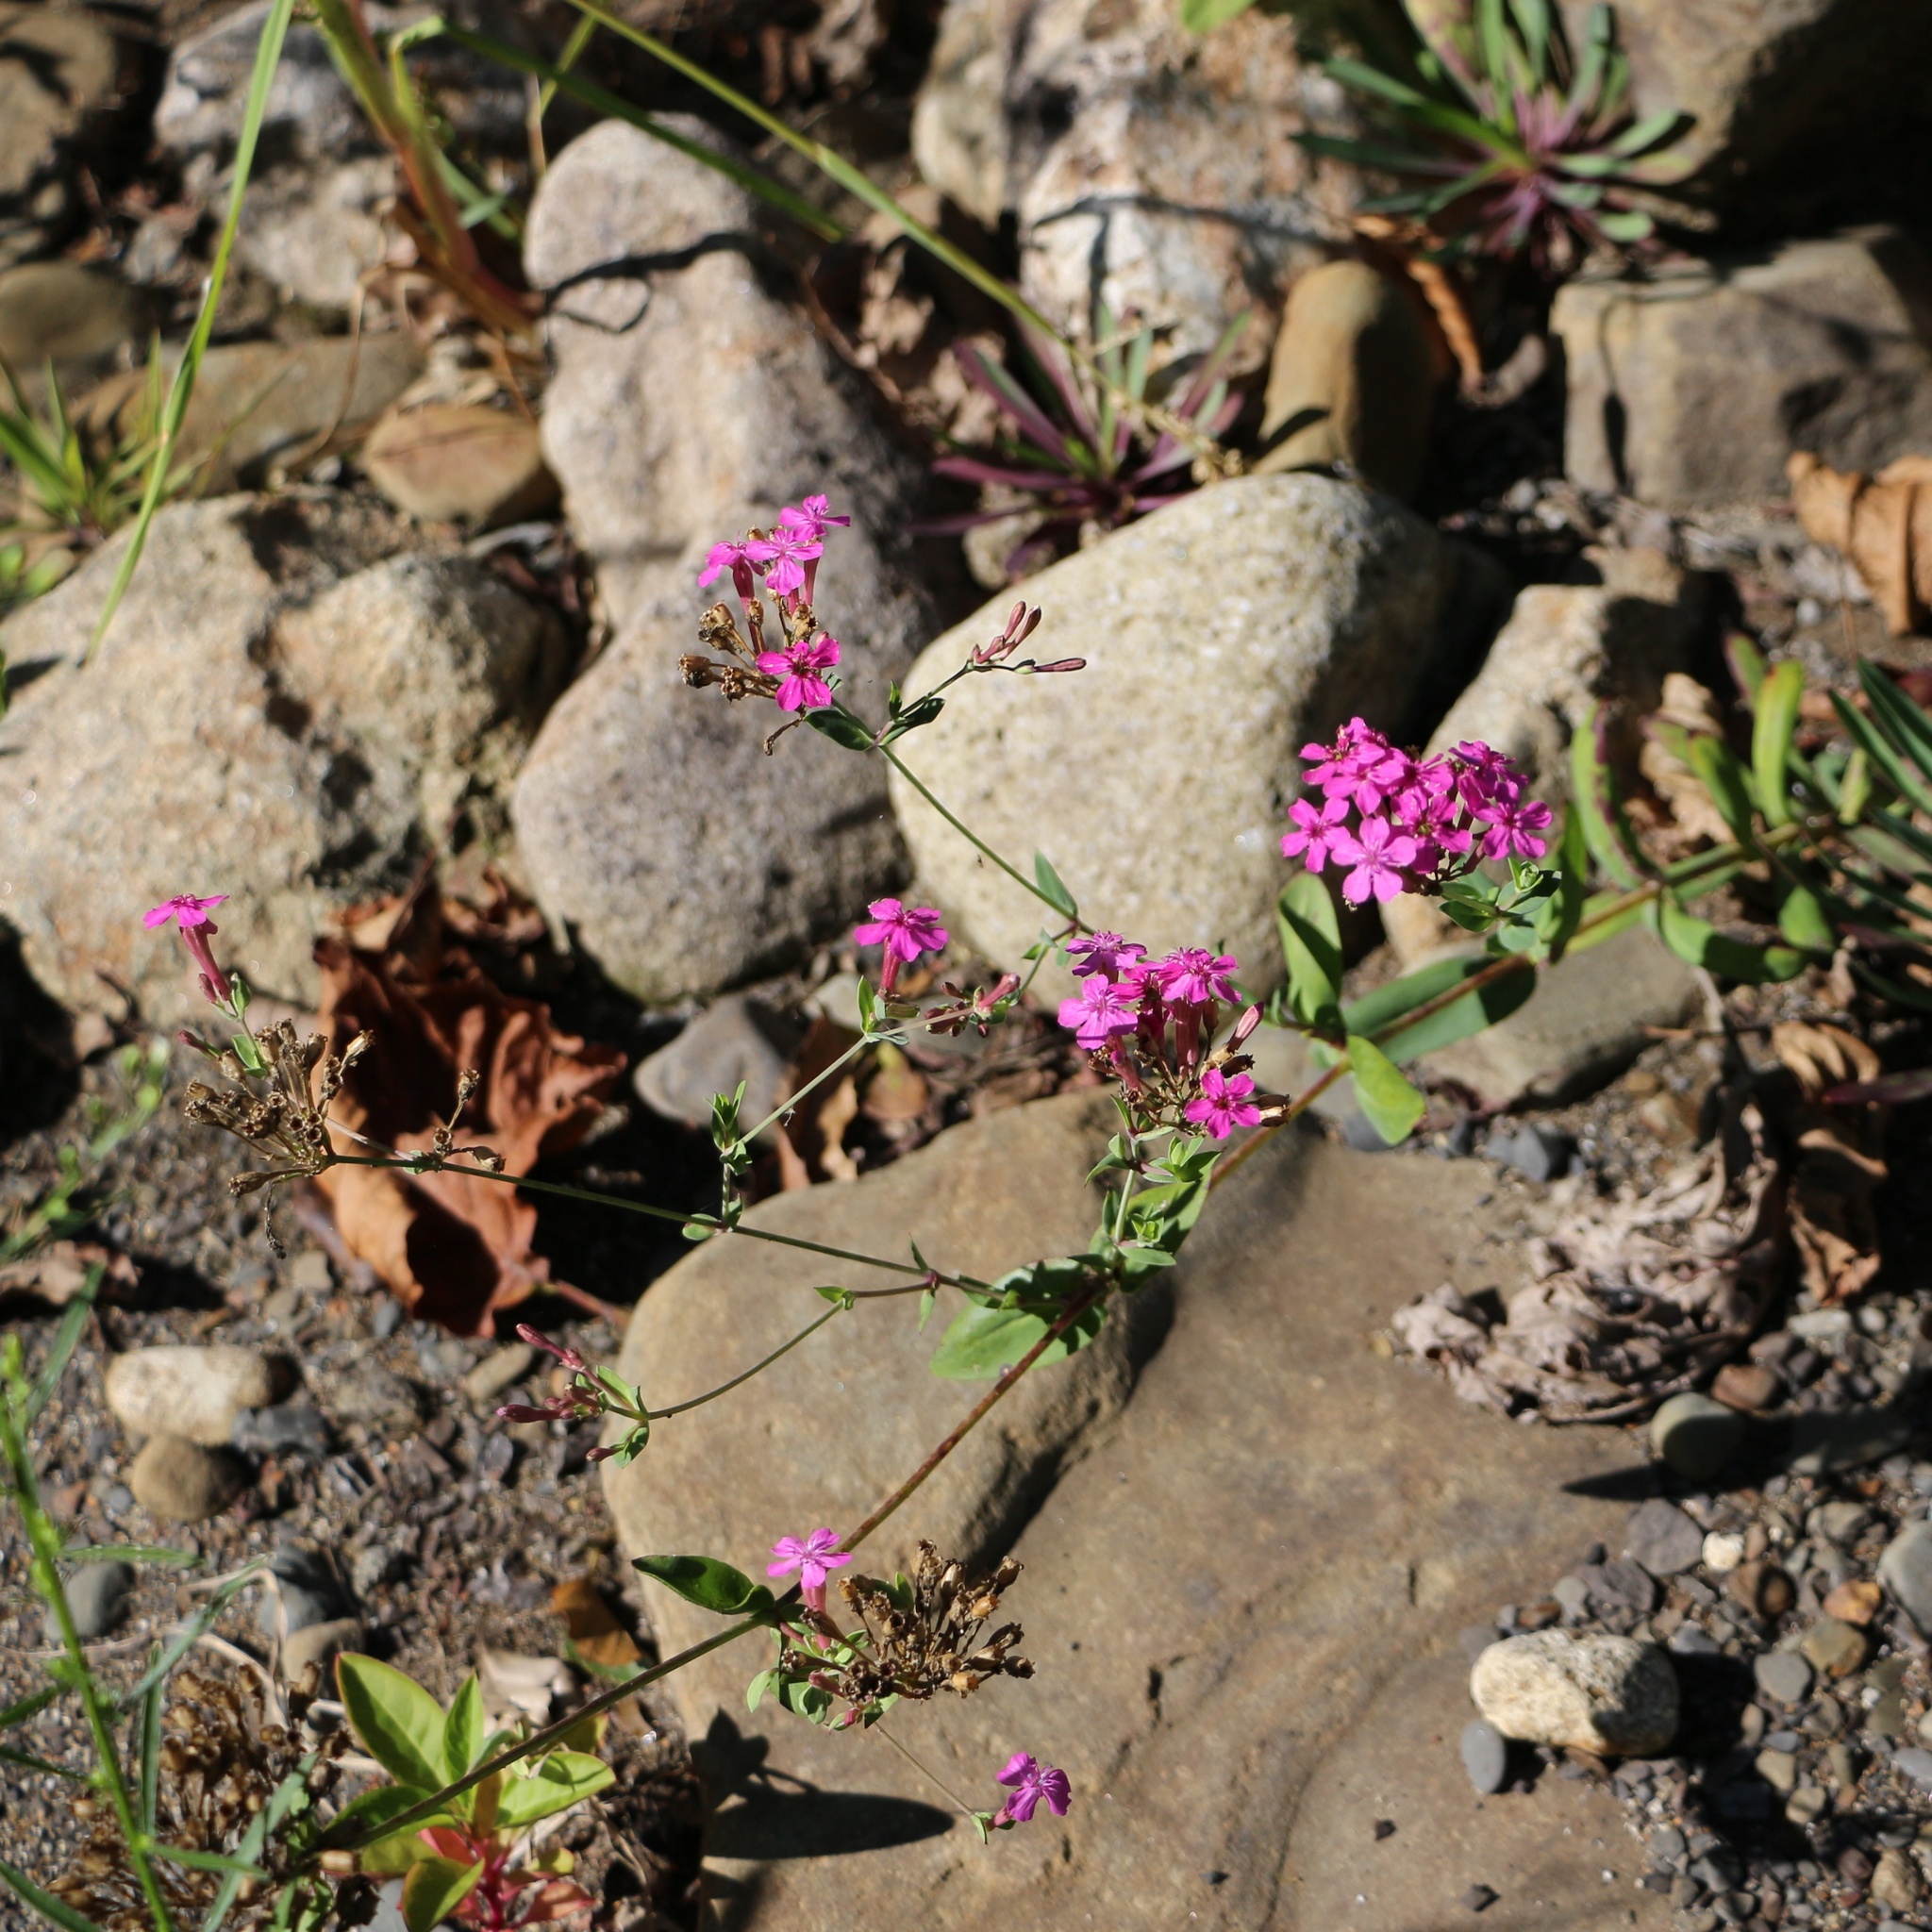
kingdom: Plantae
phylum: Tracheophyta
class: Magnoliopsida
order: Caryophyllales
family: Caryophyllaceae
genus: Atocion
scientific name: Atocion compactum
